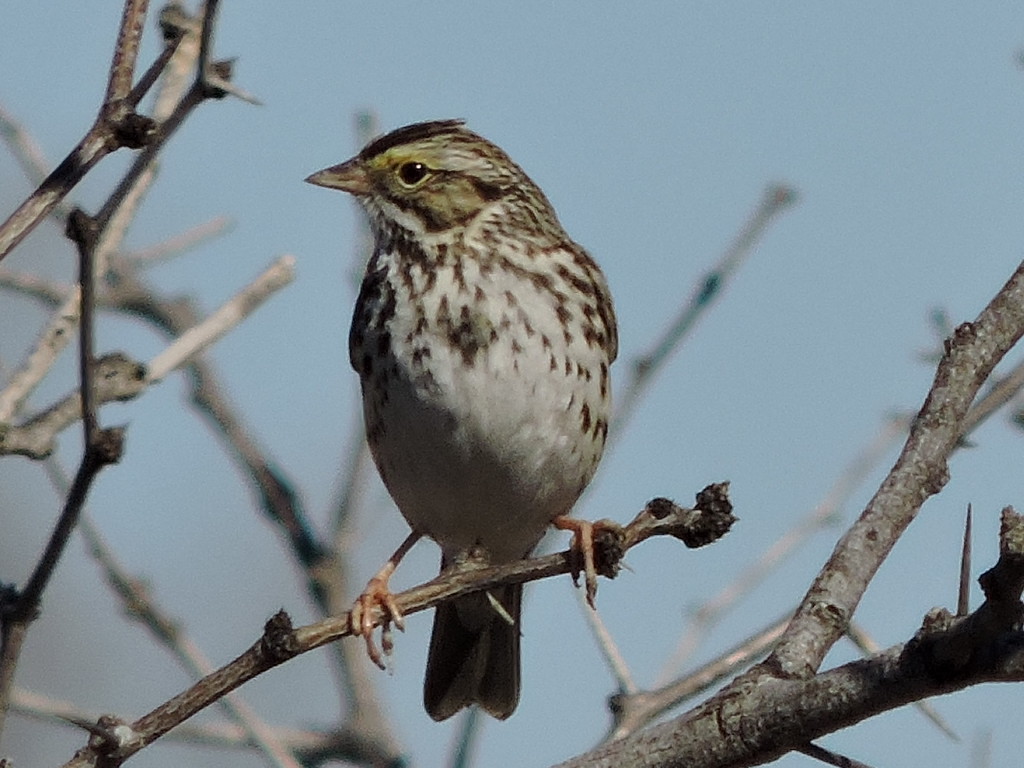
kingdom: Animalia
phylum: Chordata
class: Aves
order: Passeriformes
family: Passerellidae
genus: Passerculus
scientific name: Passerculus sandwichensis
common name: Savannah sparrow
